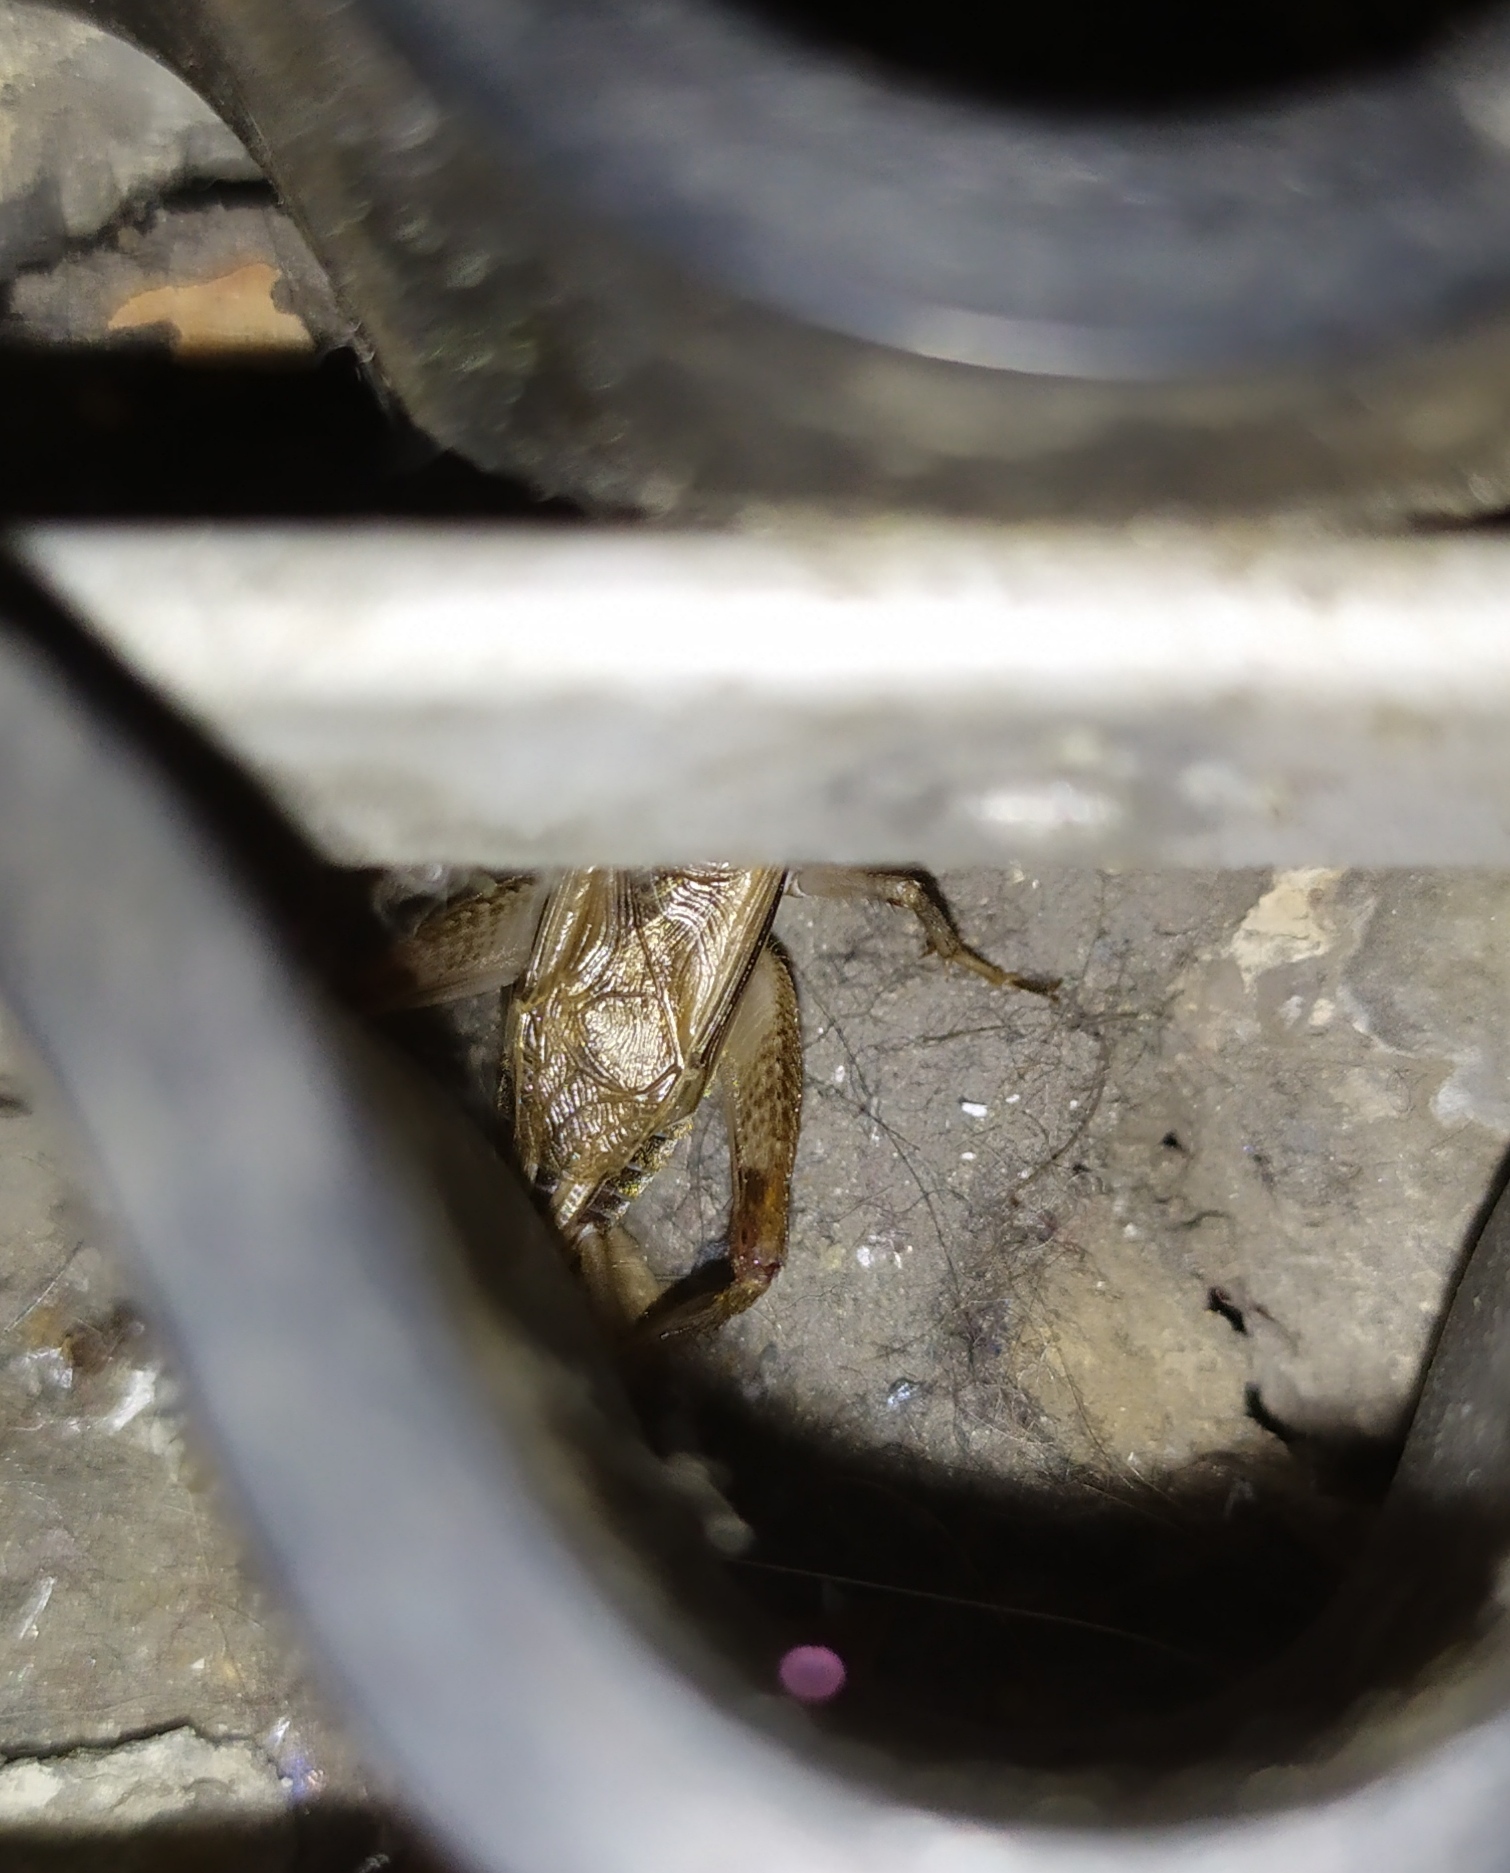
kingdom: Animalia
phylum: Arthropoda
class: Insecta
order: Orthoptera
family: Gryllidae
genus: Acheta
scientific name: Acheta domesticus
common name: House cricket
